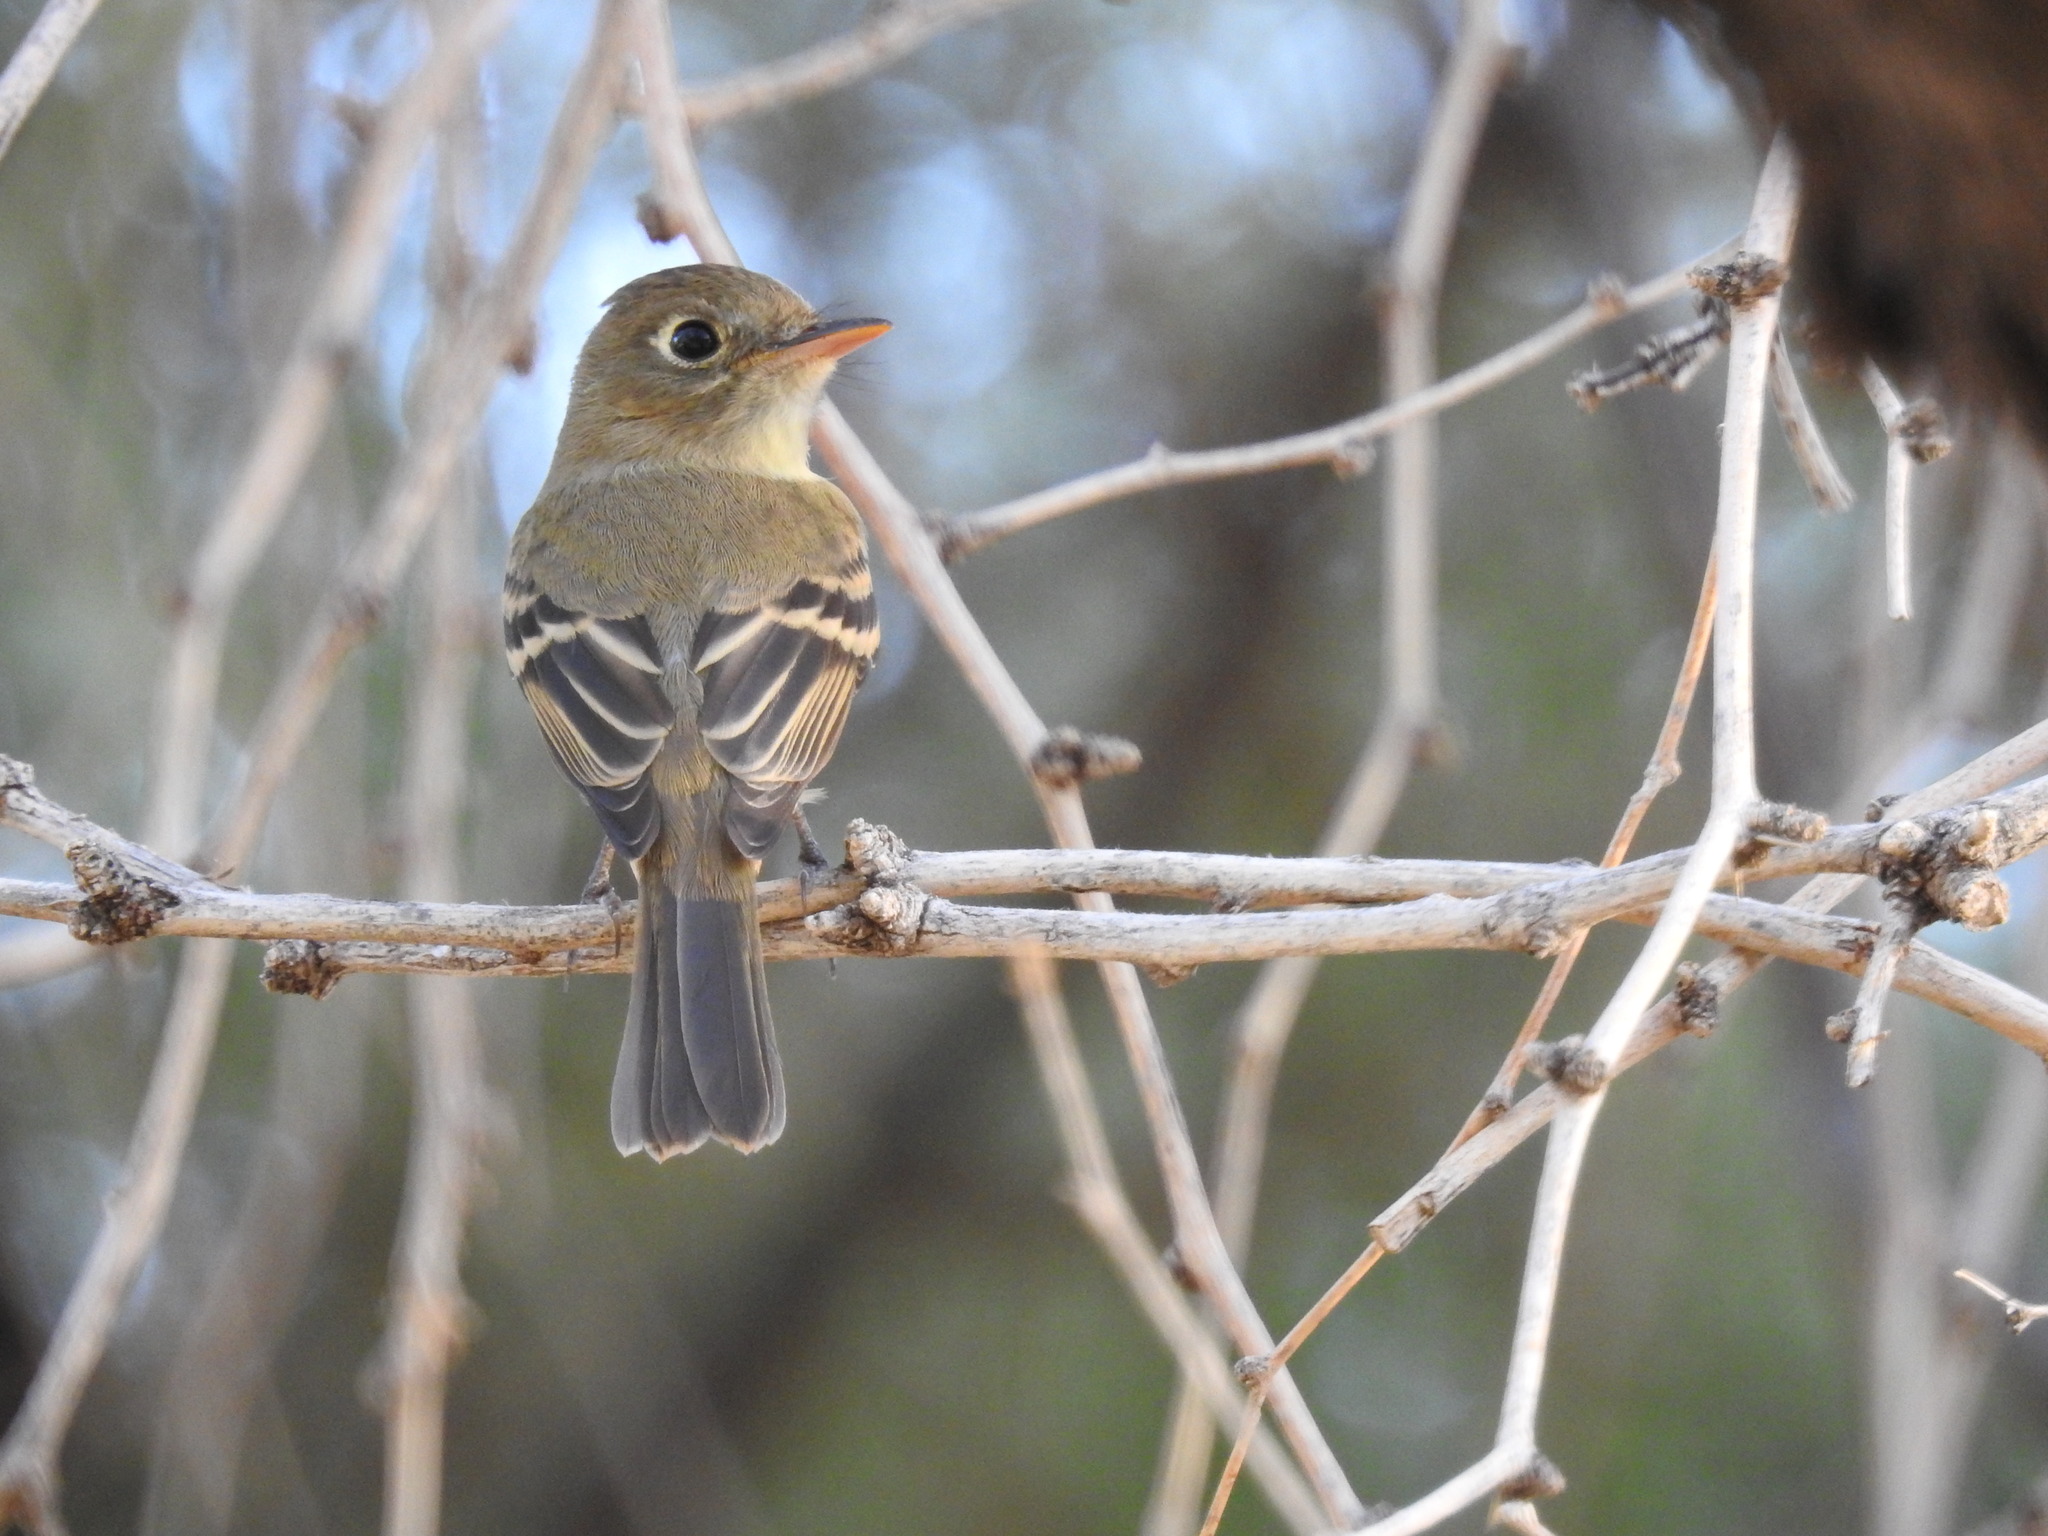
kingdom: Animalia
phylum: Chordata
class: Aves
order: Passeriformes
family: Tyrannidae
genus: Empidonax
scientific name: Empidonax difficilis
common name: Pacific-slope flycatcher
